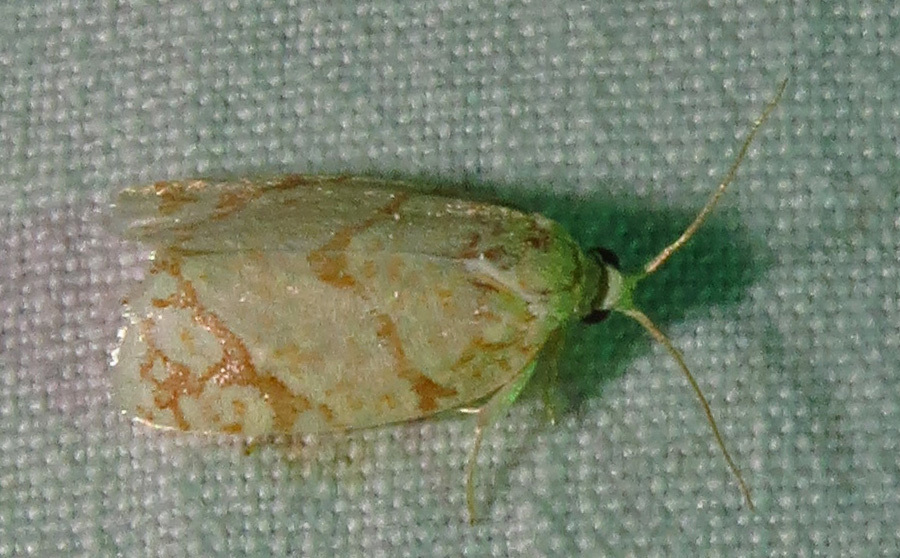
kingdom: Animalia
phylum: Arthropoda
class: Insecta
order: Lepidoptera
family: Tortricidae
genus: Argyrotaenia
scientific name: Argyrotaenia quercifoliana
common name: Yellow-winged oak leafroller moth
